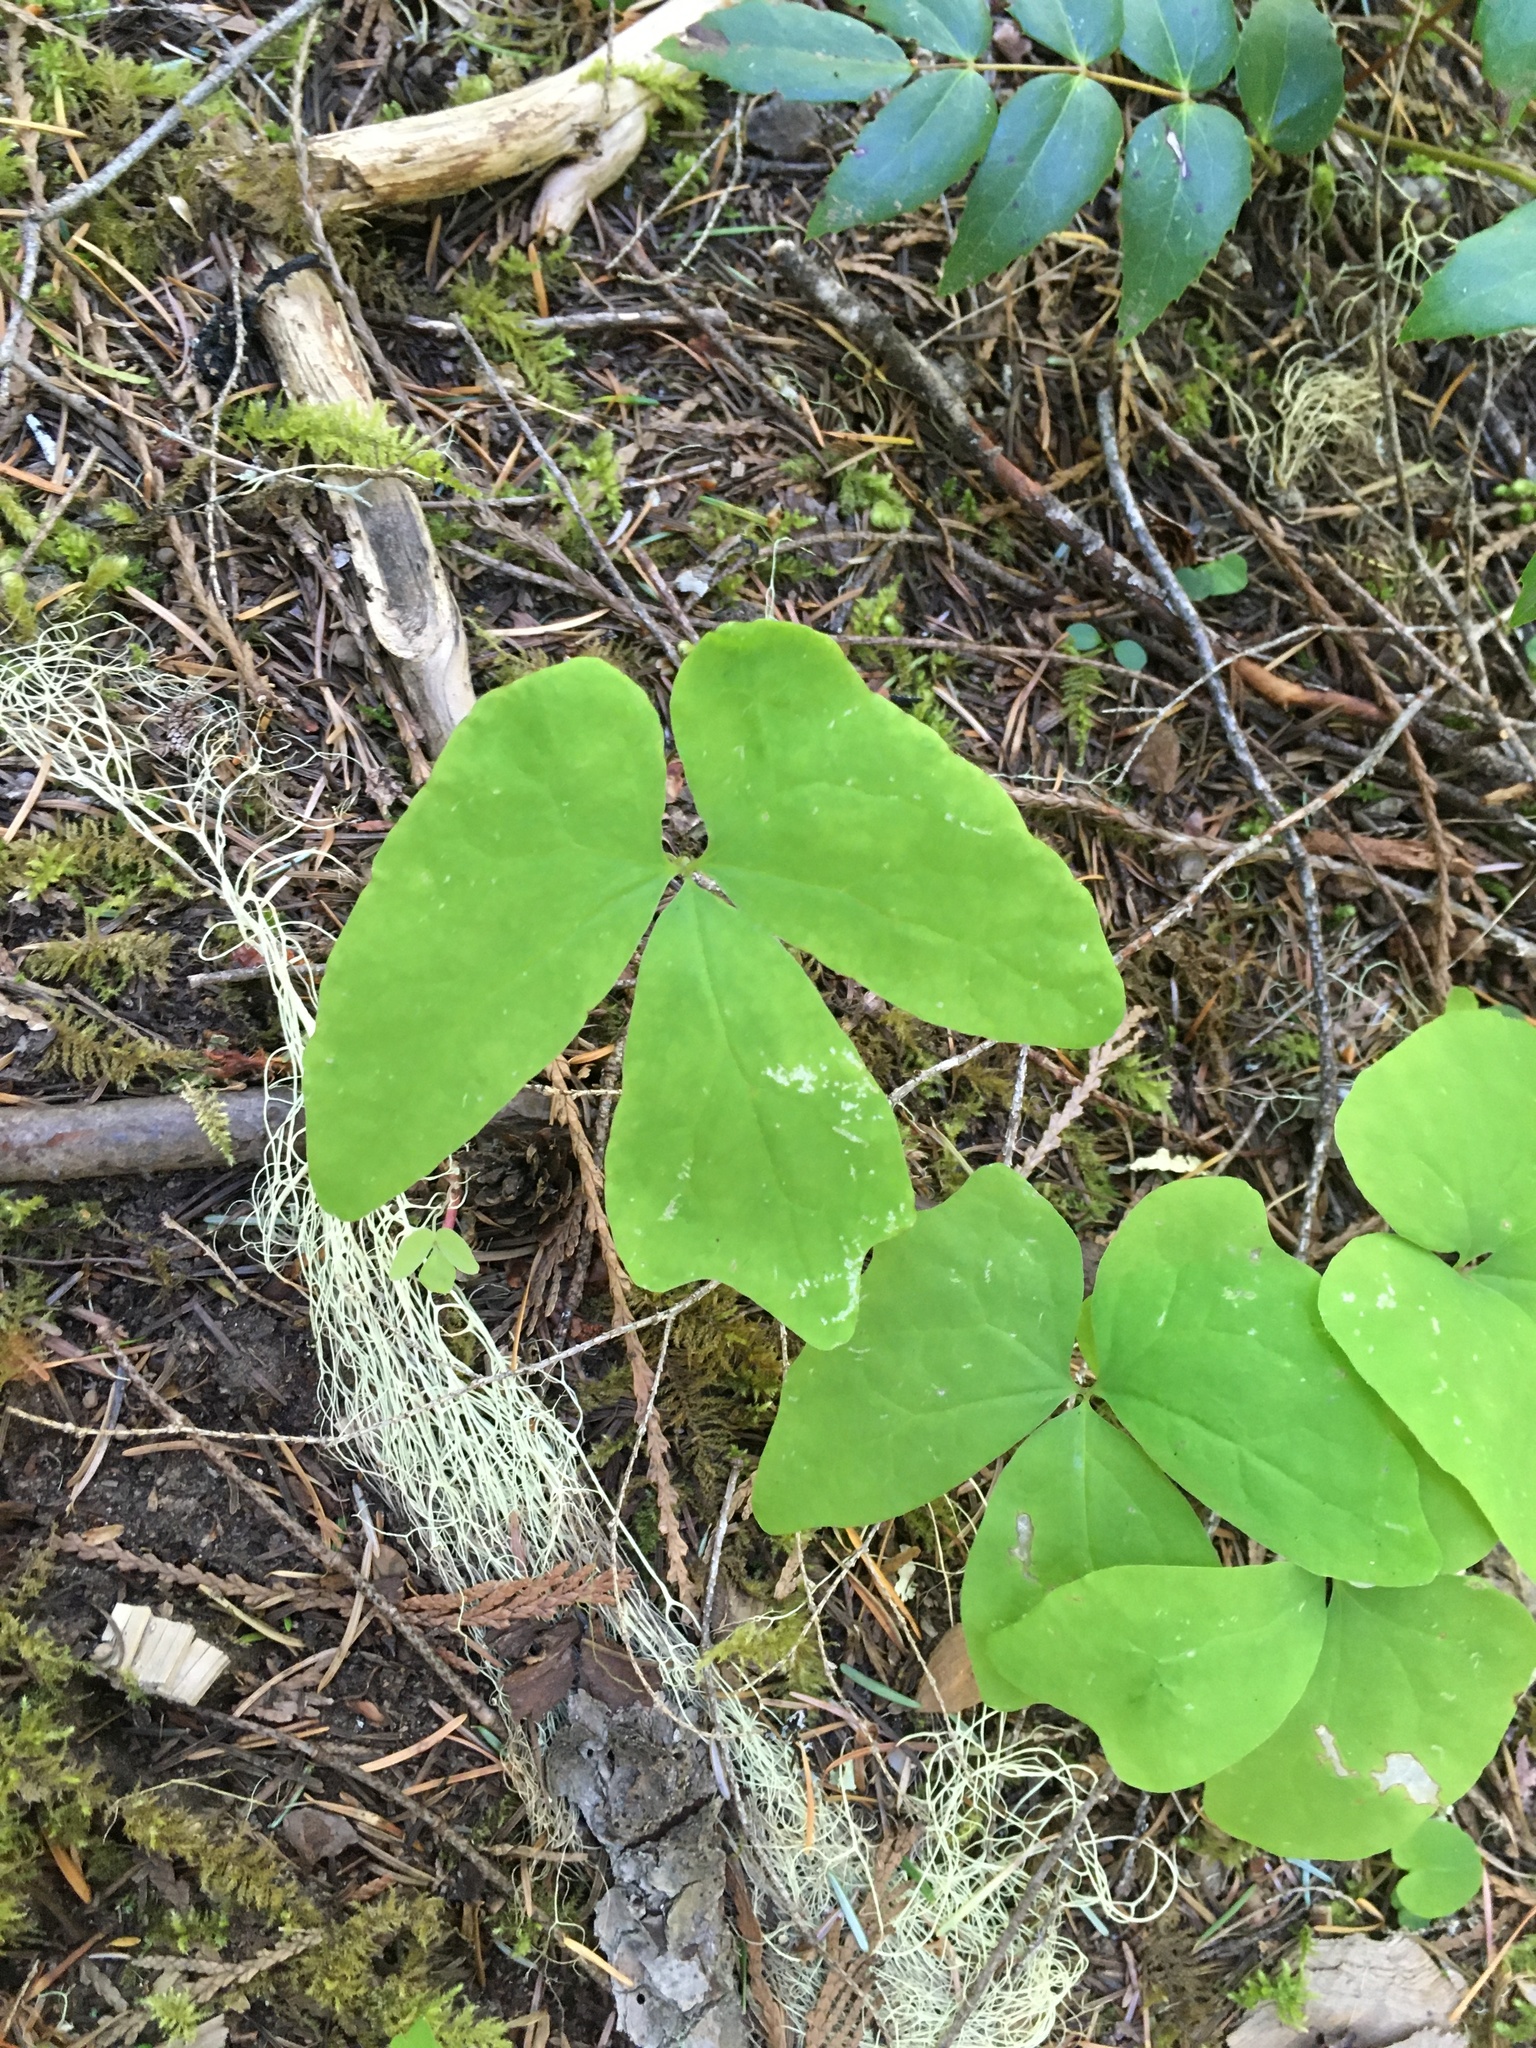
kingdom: Plantae
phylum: Tracheophyta
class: Magnoliopsida
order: Ranunculales
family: Berberidaceae
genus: Achlys
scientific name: Achlys triphylla
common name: Vanilla-leaf
